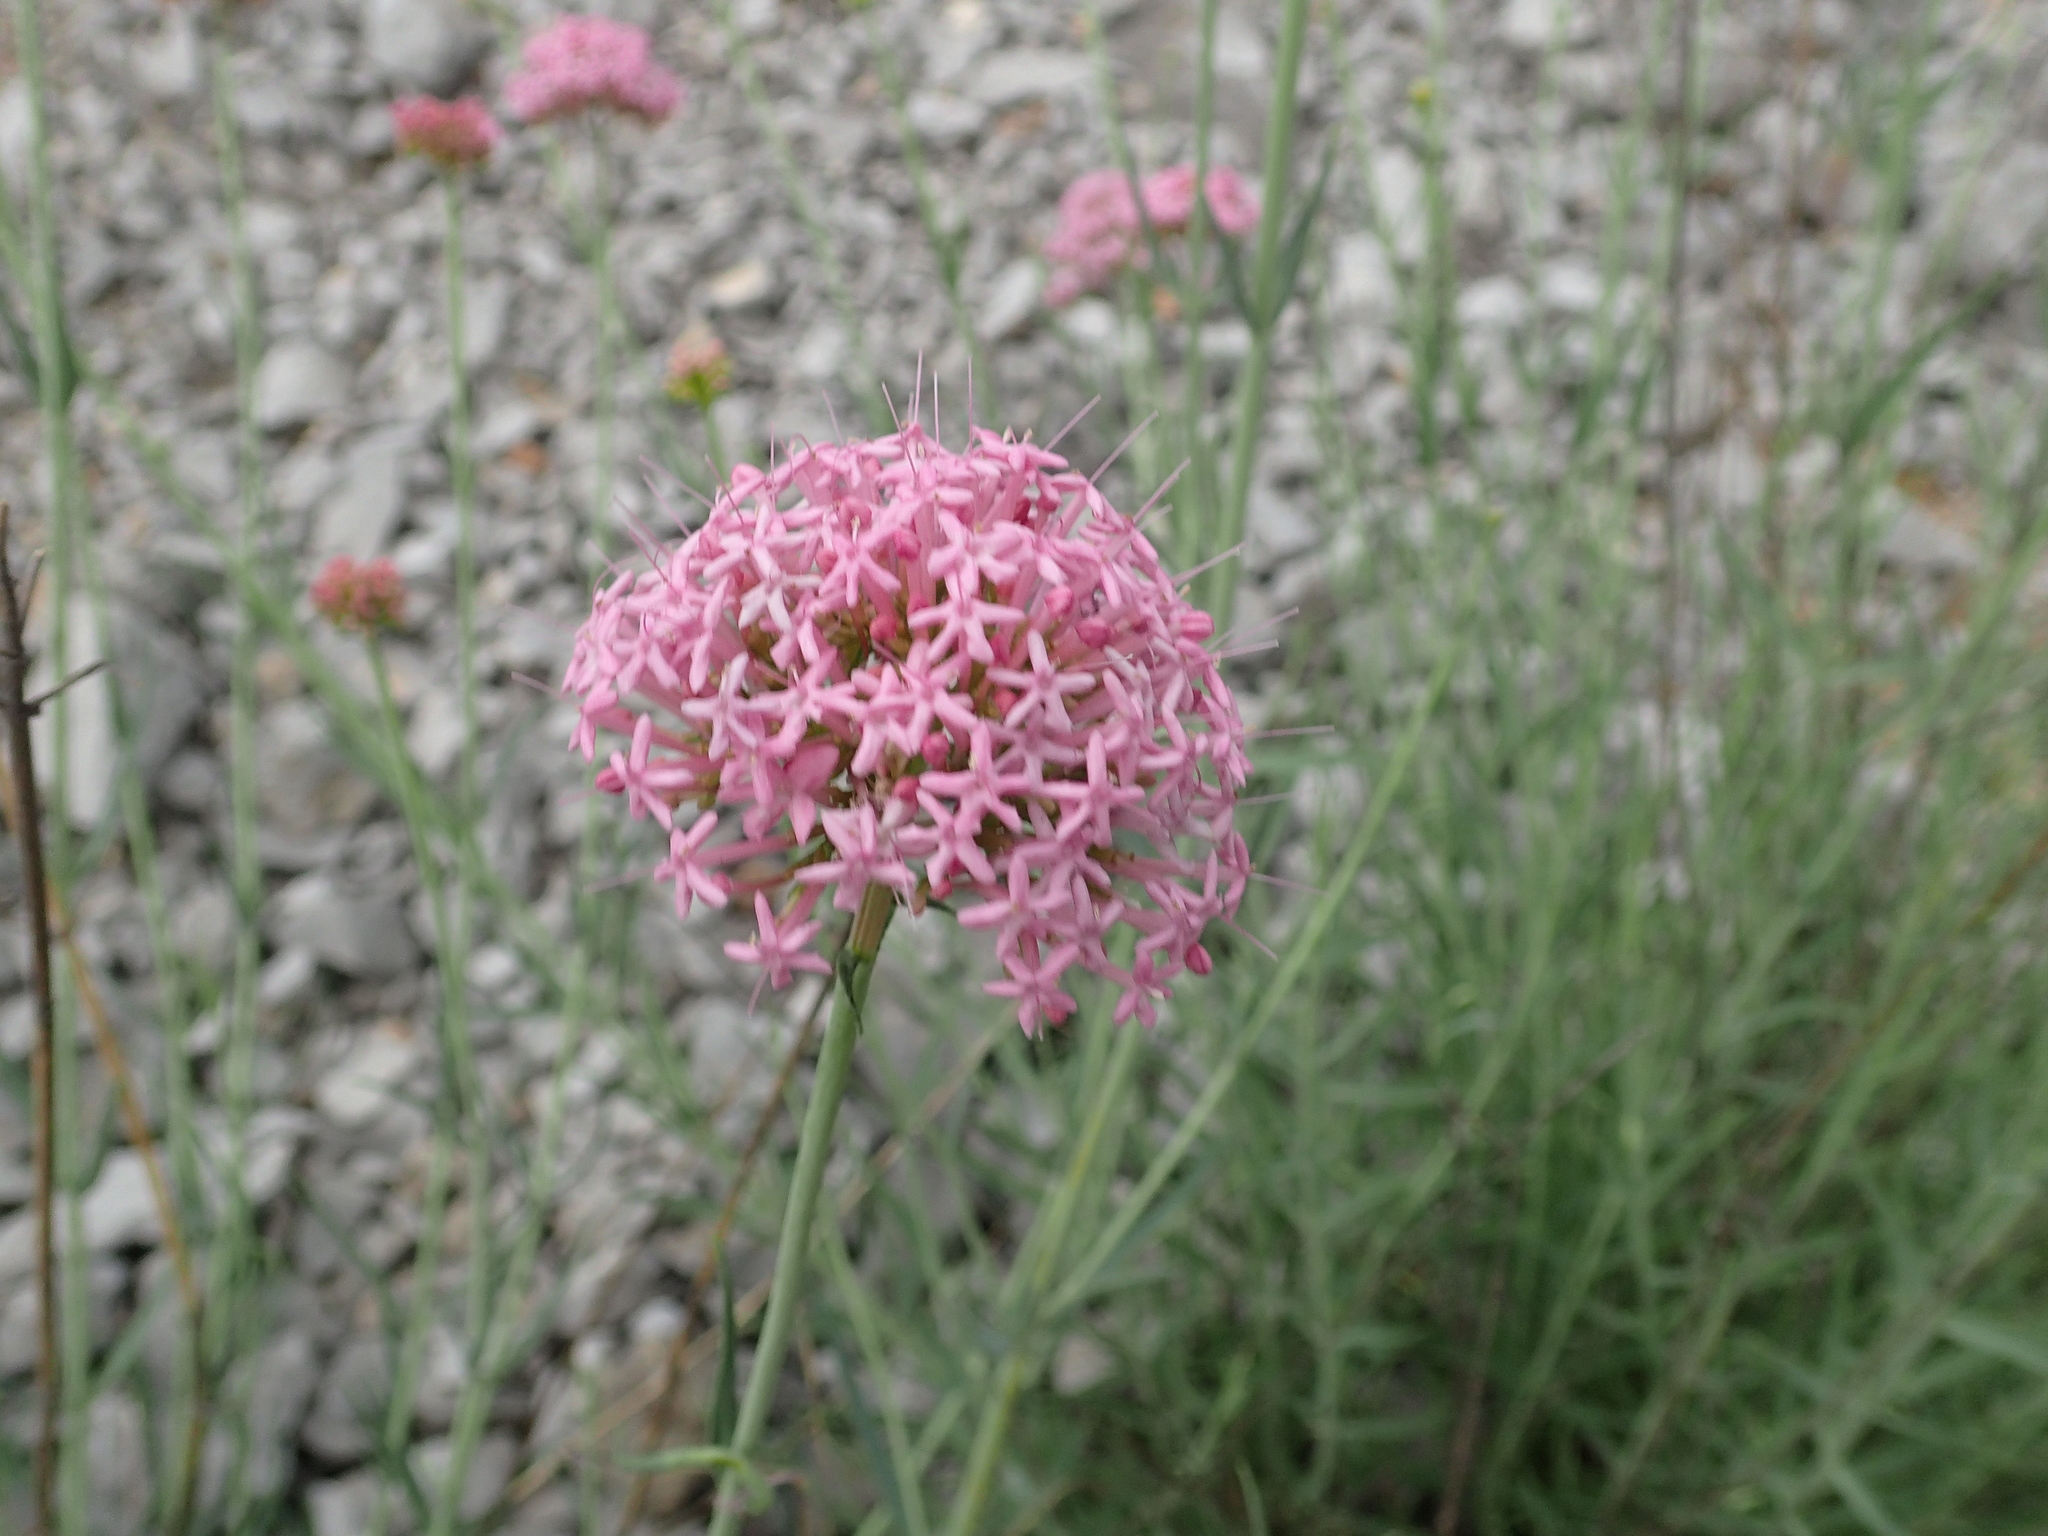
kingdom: Plantae
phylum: Tracheophyta
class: Magnoliopsida
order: Dipsacales
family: Caprifoliaceae
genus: Centranthus
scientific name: Centranthus lecoqii
